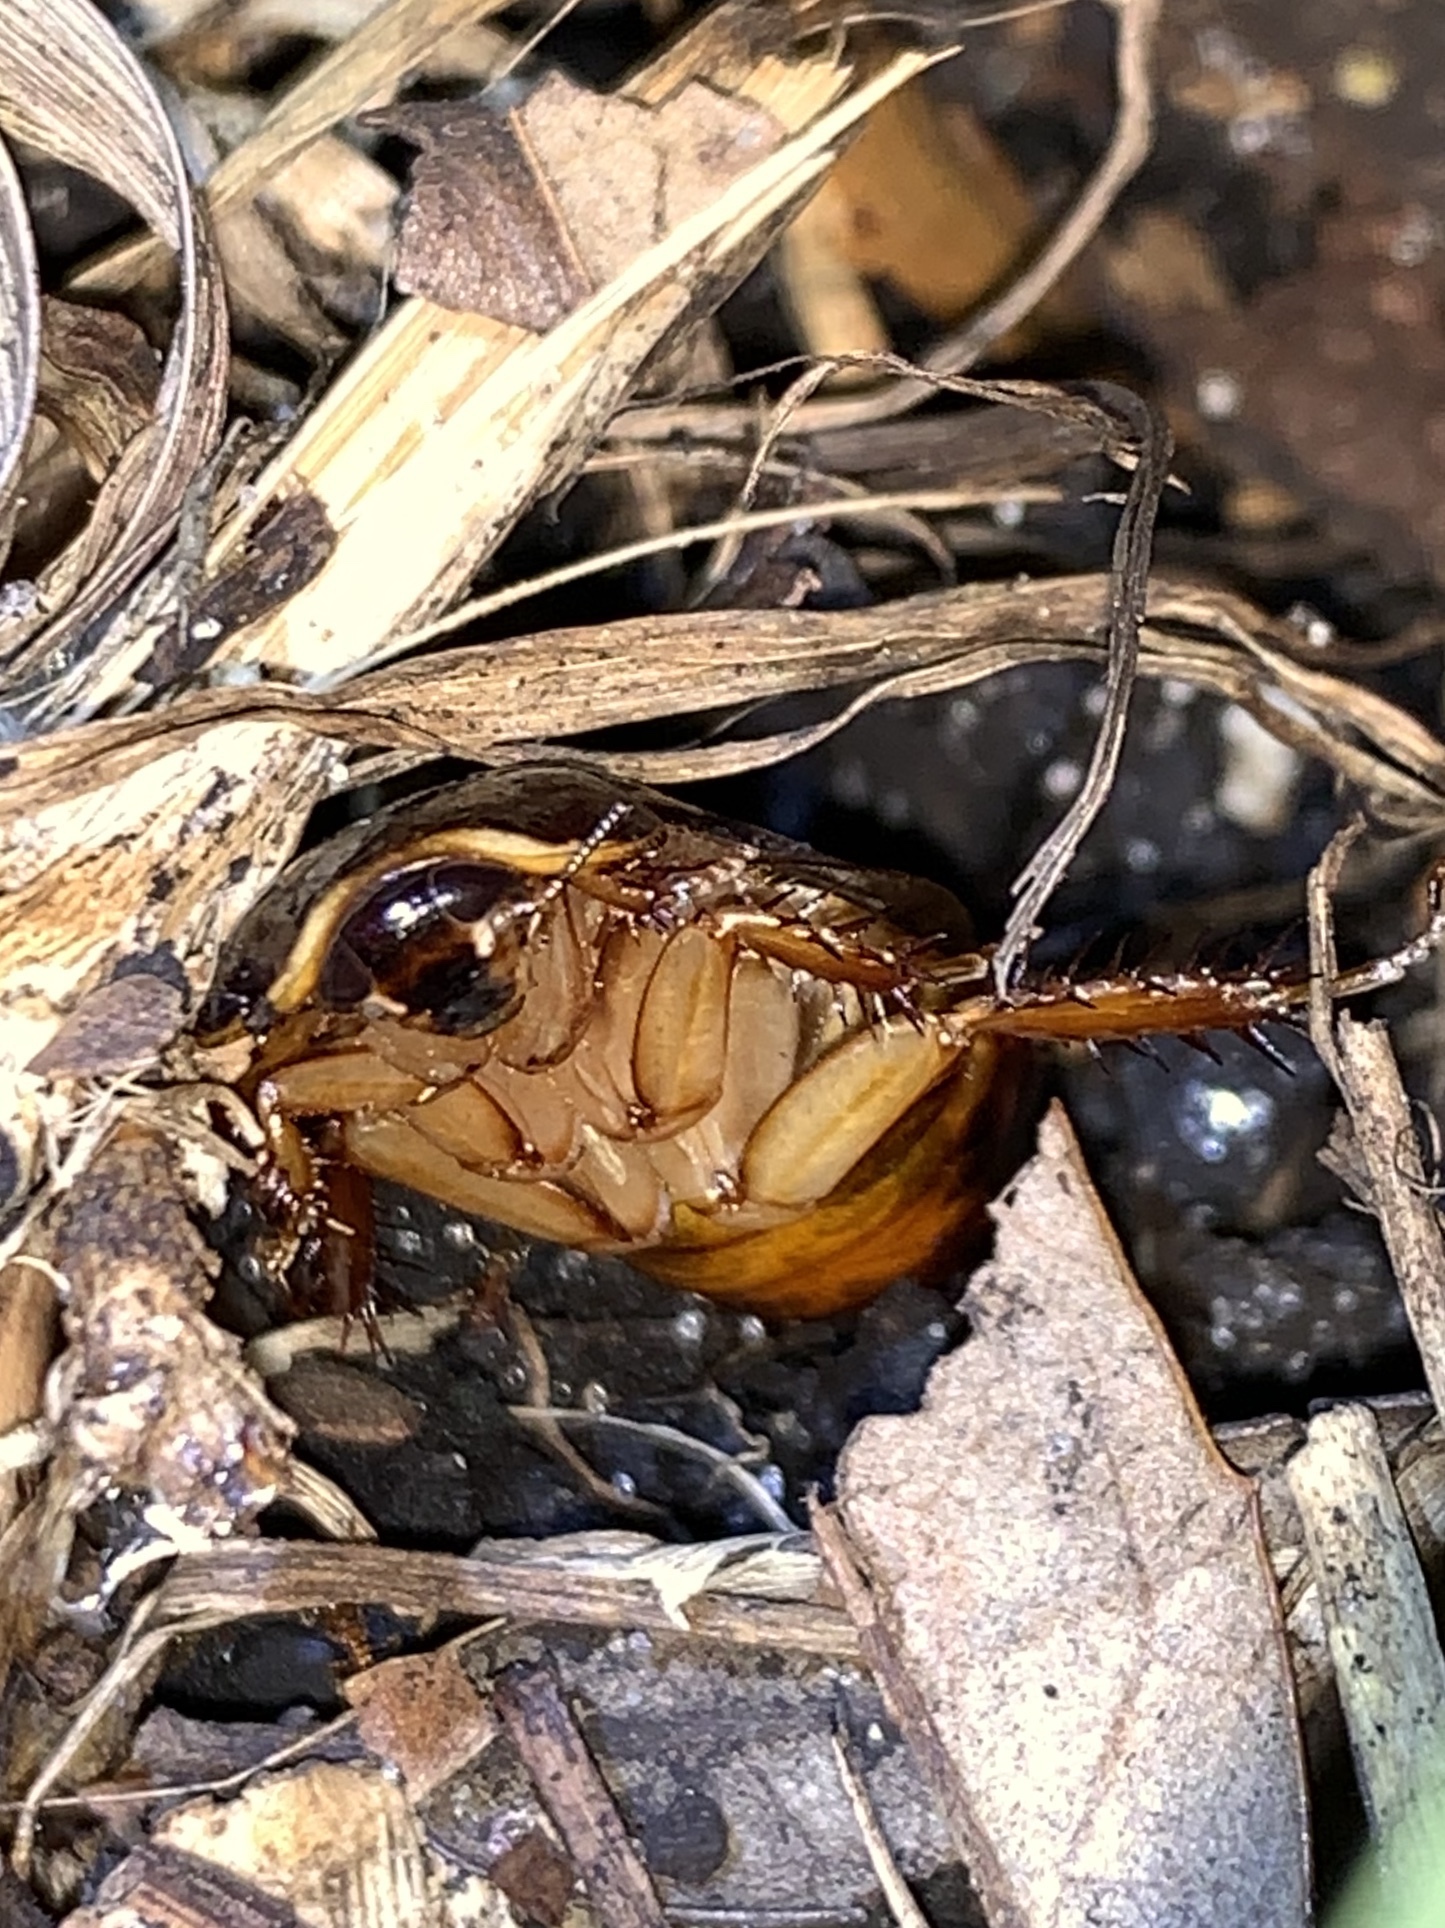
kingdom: Animalia
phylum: Arthropoda
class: Insecta
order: Blattodea
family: Blaberidae
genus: Pycnoscelus
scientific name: Pycnoscelus surinamensis
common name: Surinam cockroach
